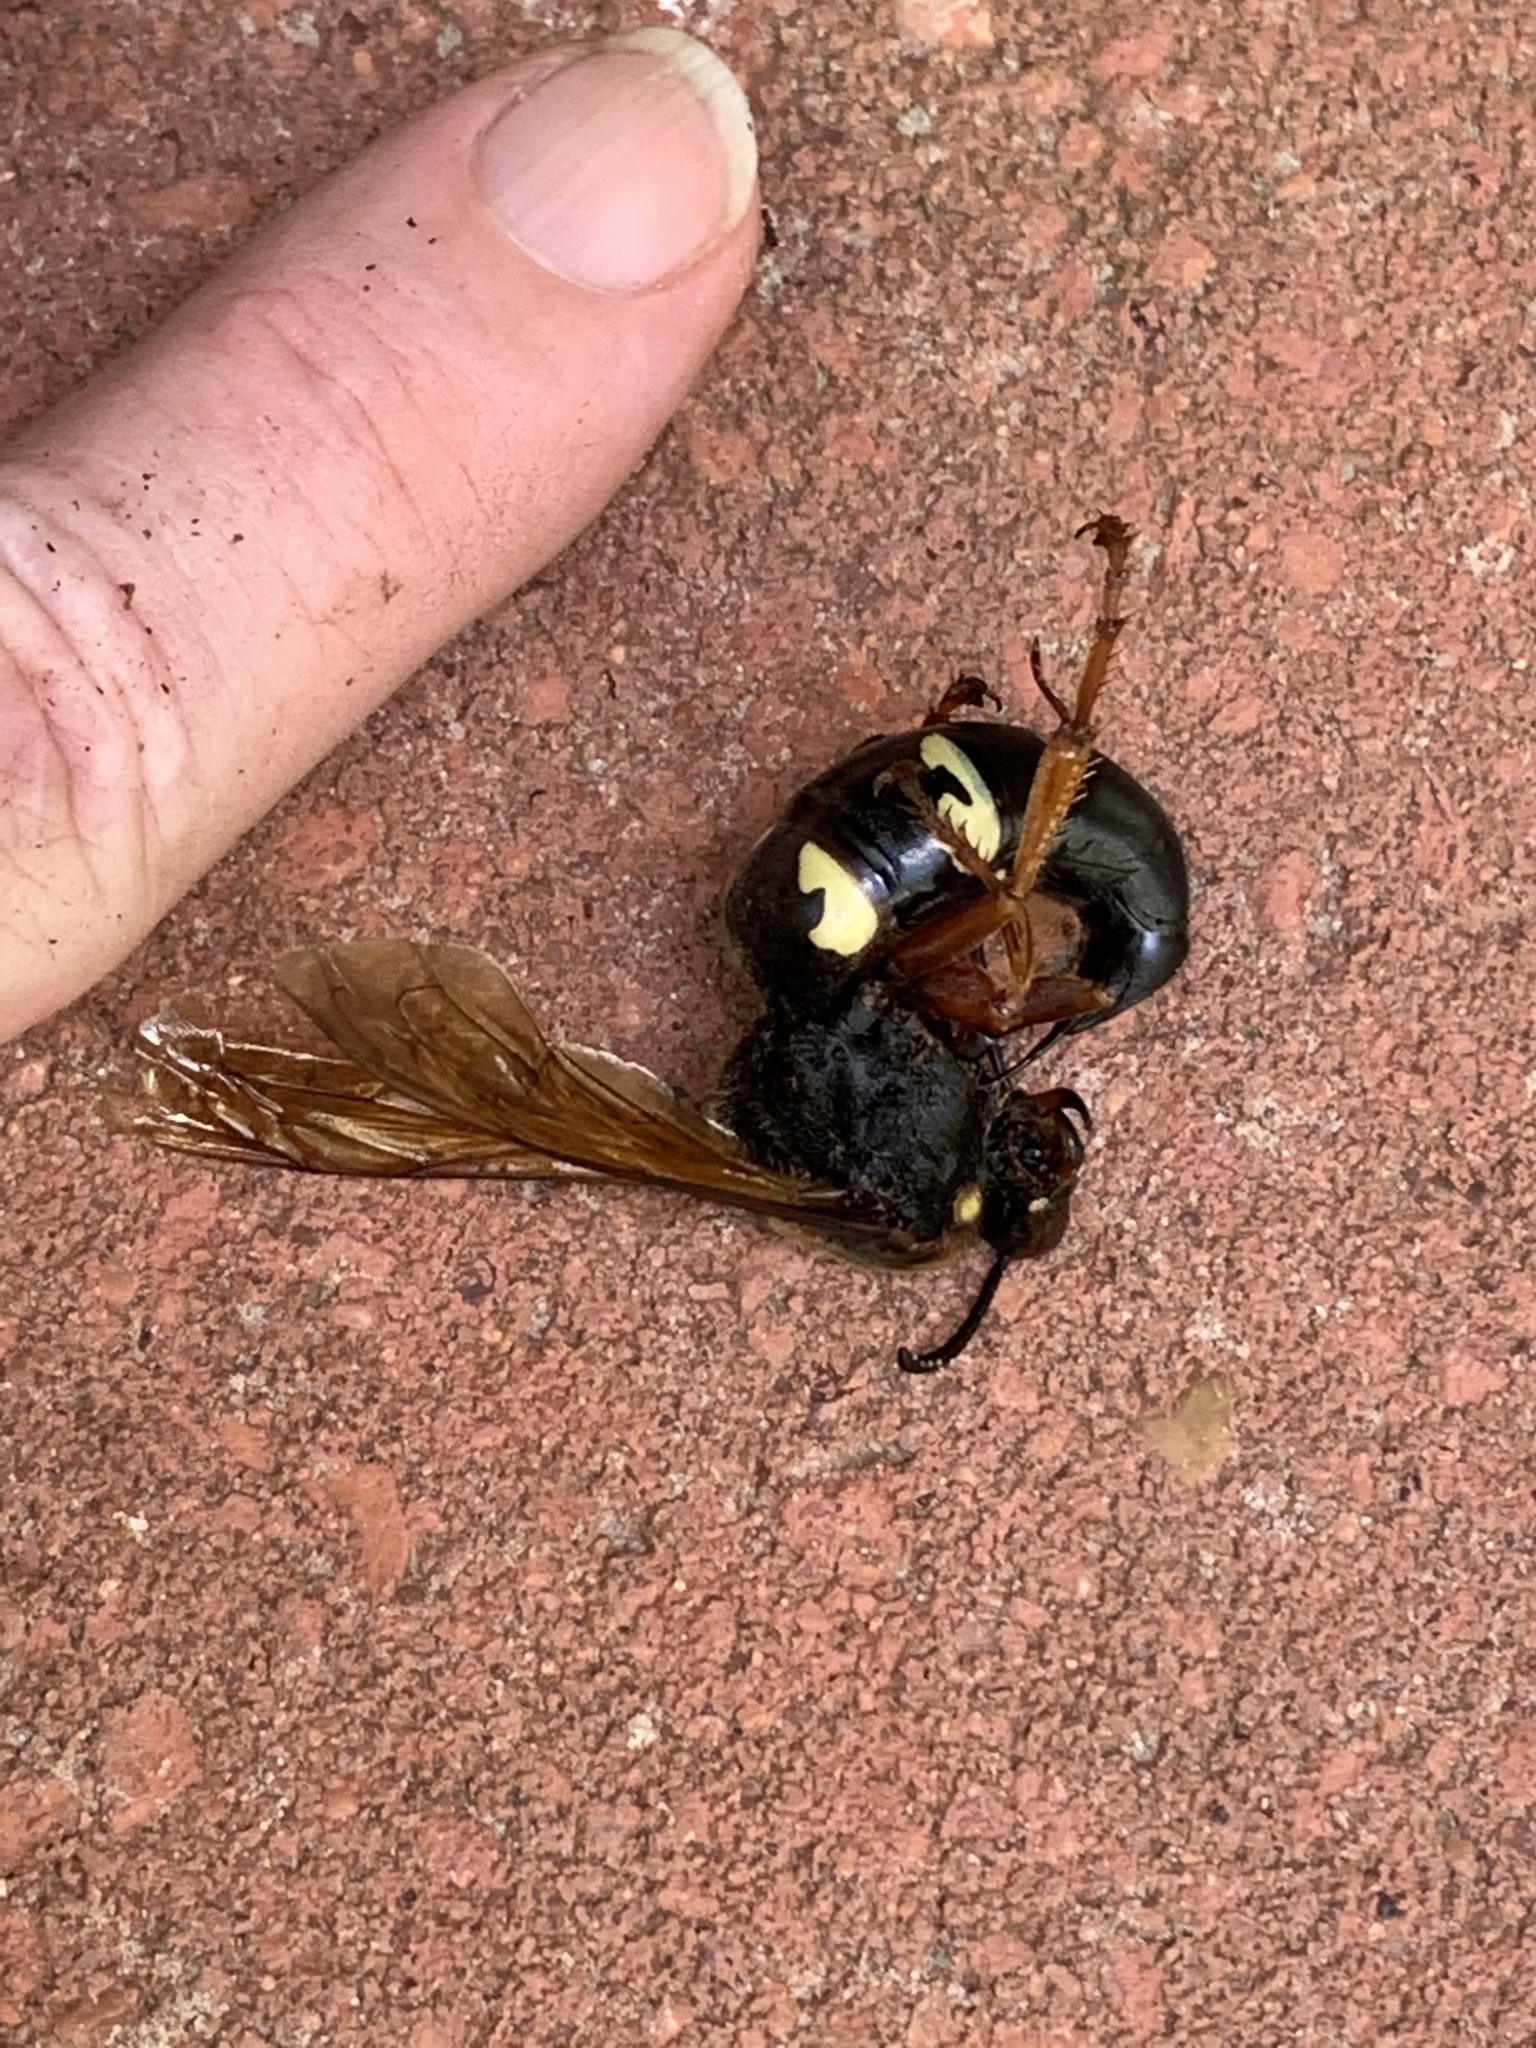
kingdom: Animalia
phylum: Arthropoda
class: Insecta
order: Hymenoptera
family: Crabronidae
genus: Sphecius
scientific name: Sphecius speciosus
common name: Cicada killer
